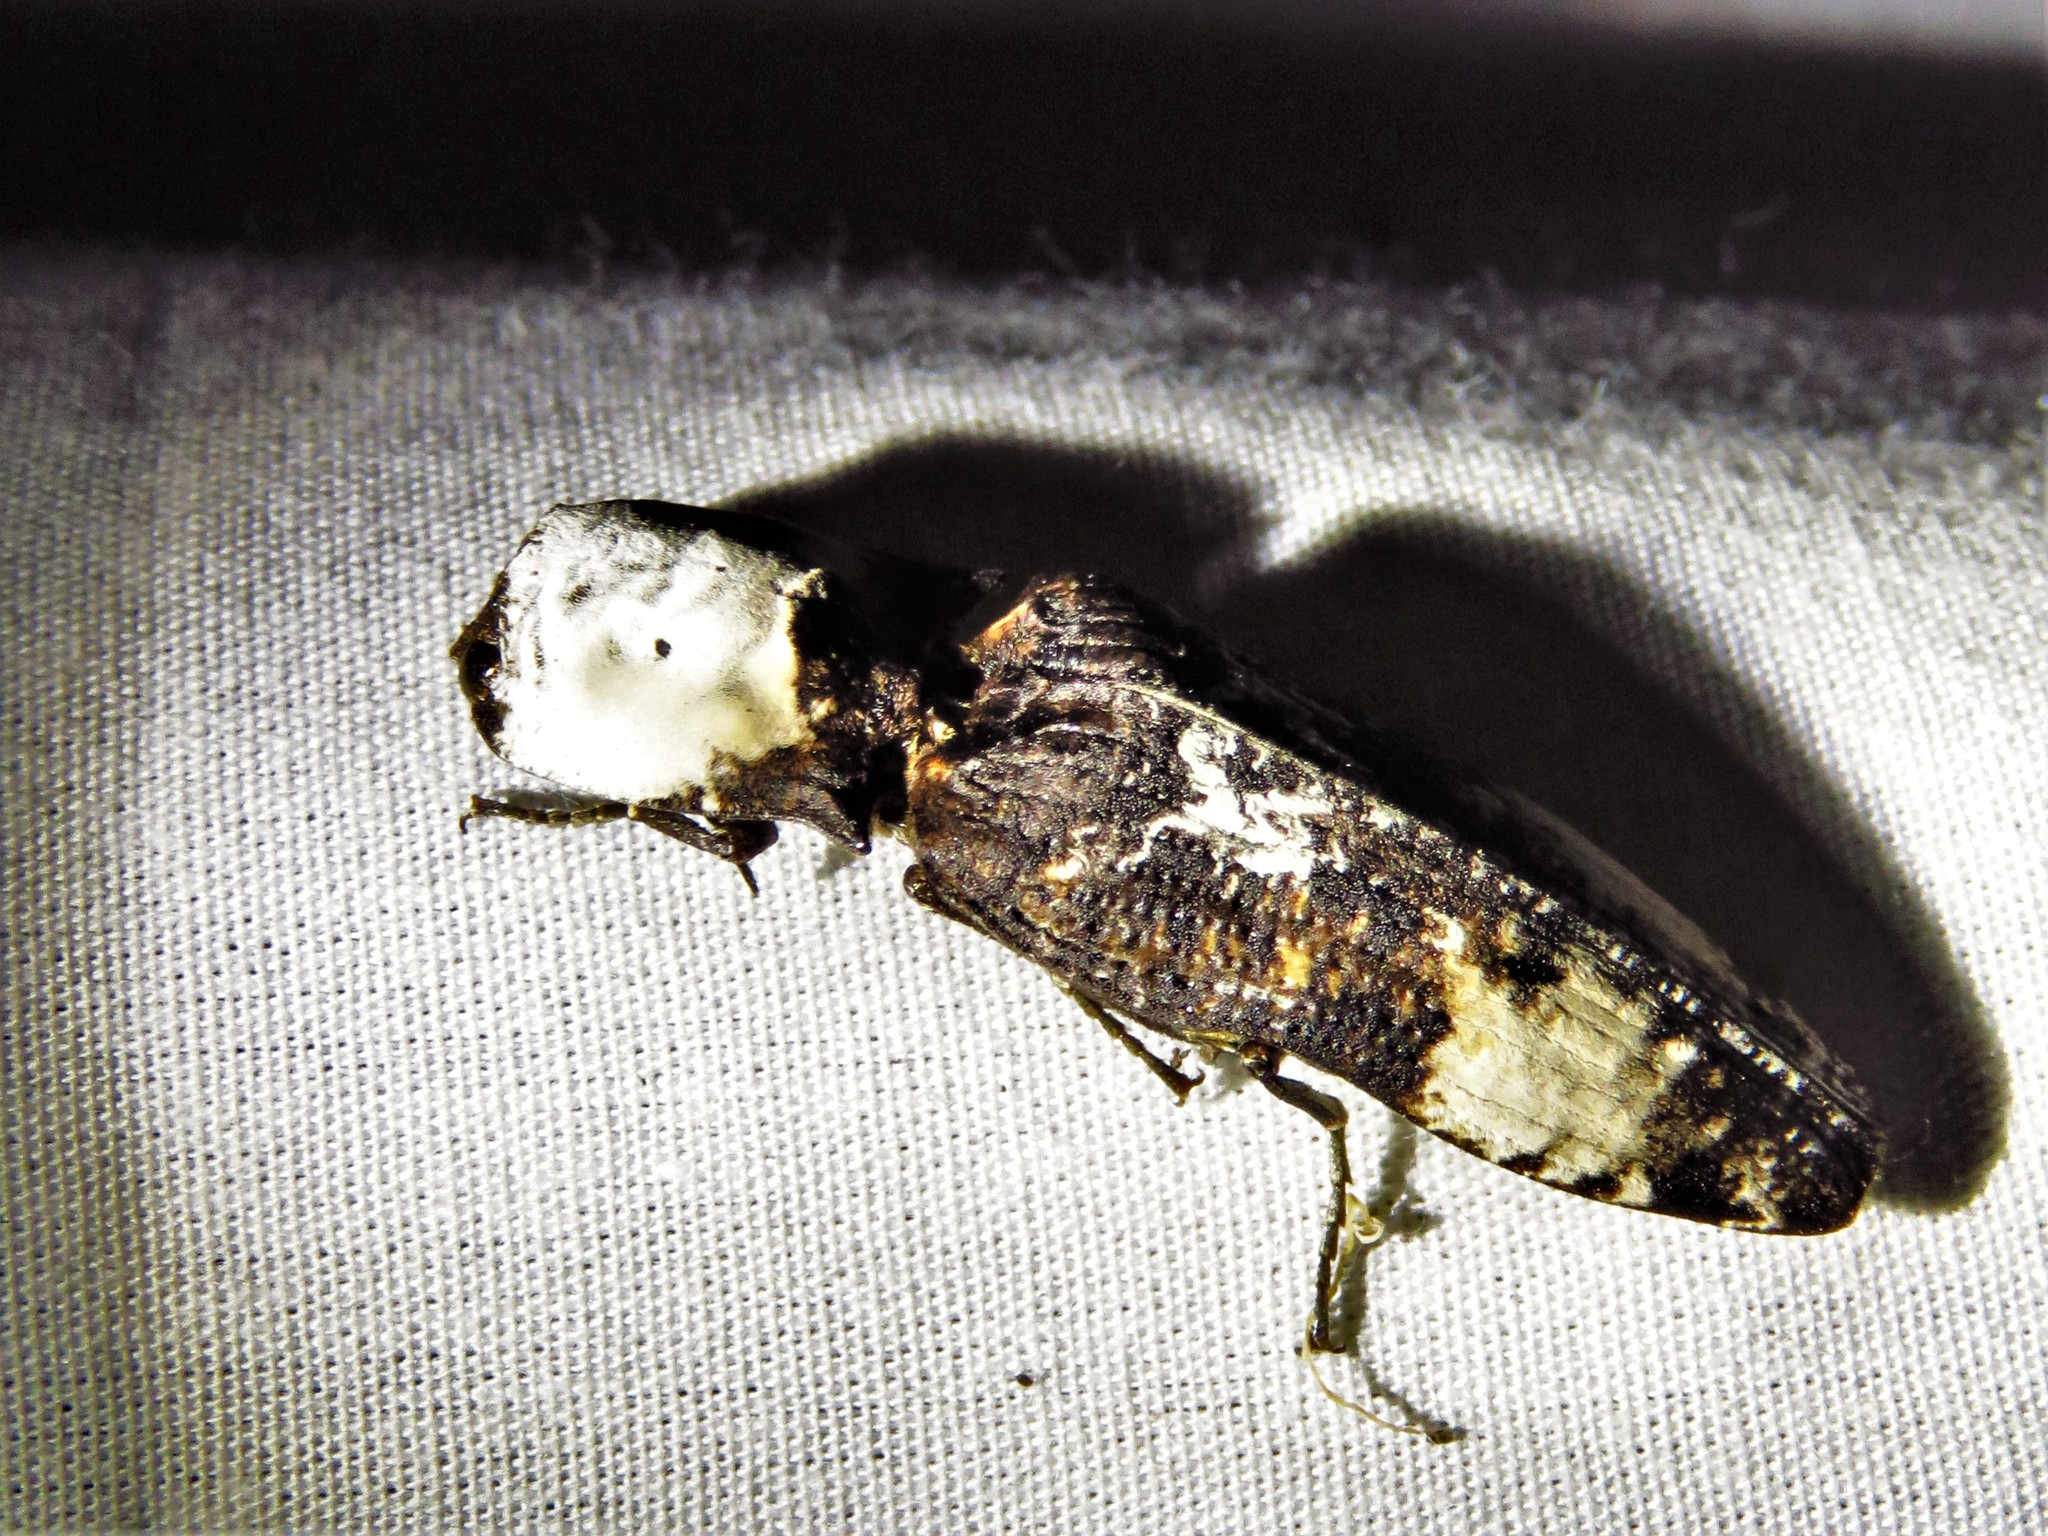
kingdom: Animalia
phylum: Arthropoda
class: Insecta
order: Coleoptera
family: Elateridae
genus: Calais
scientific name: Calais
